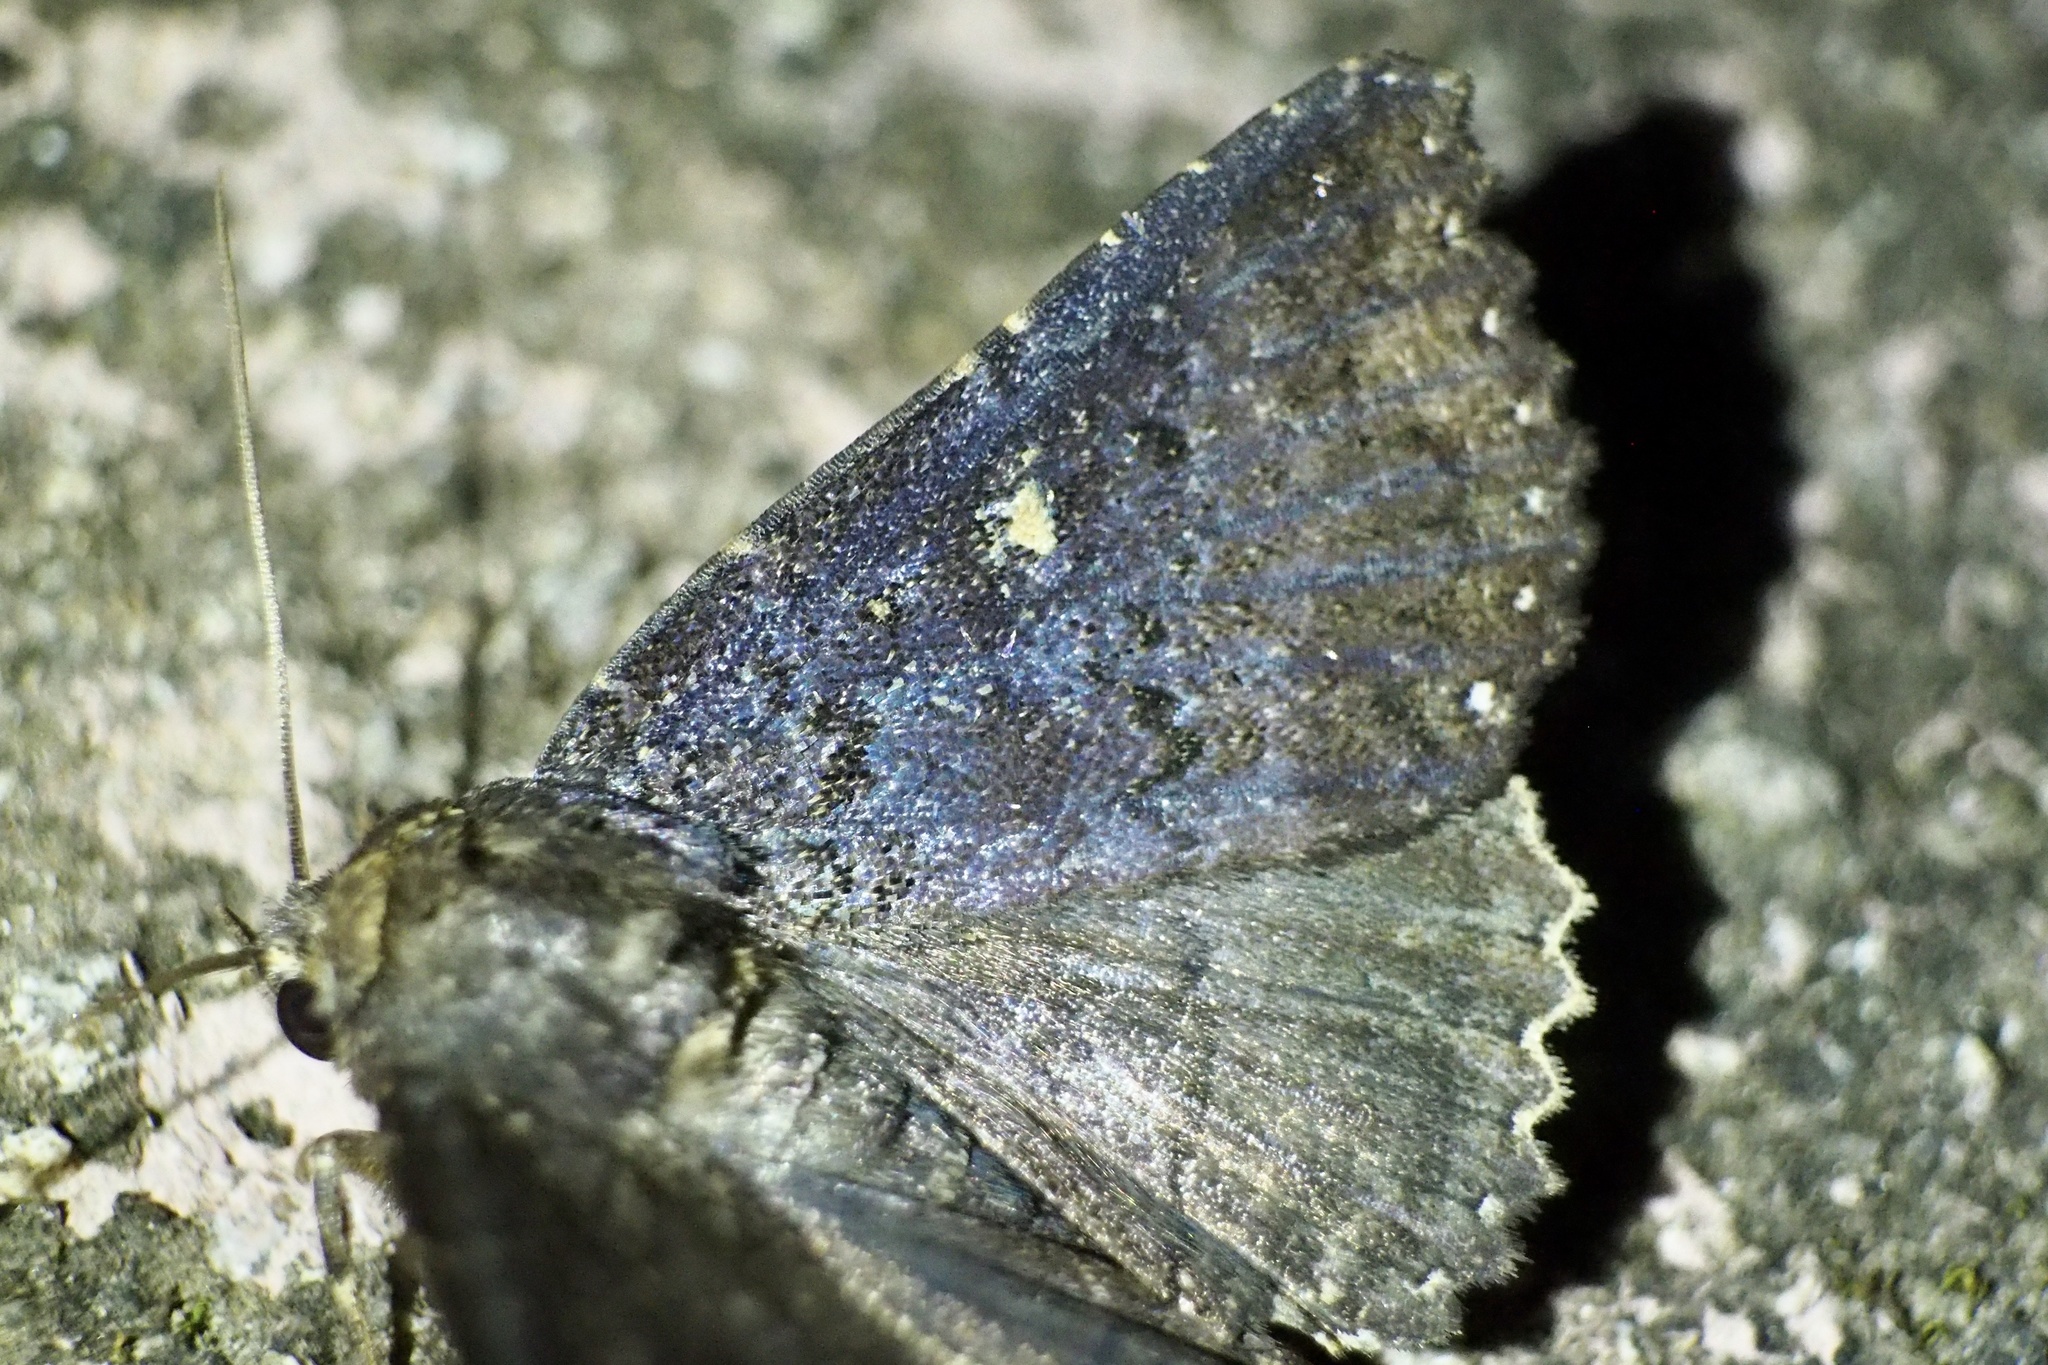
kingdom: Animalia
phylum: Arthropoda
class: Insecta
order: Lepidoptera
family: Erebidae
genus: Hypersypnoides
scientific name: Hypersypnoides submarginata
